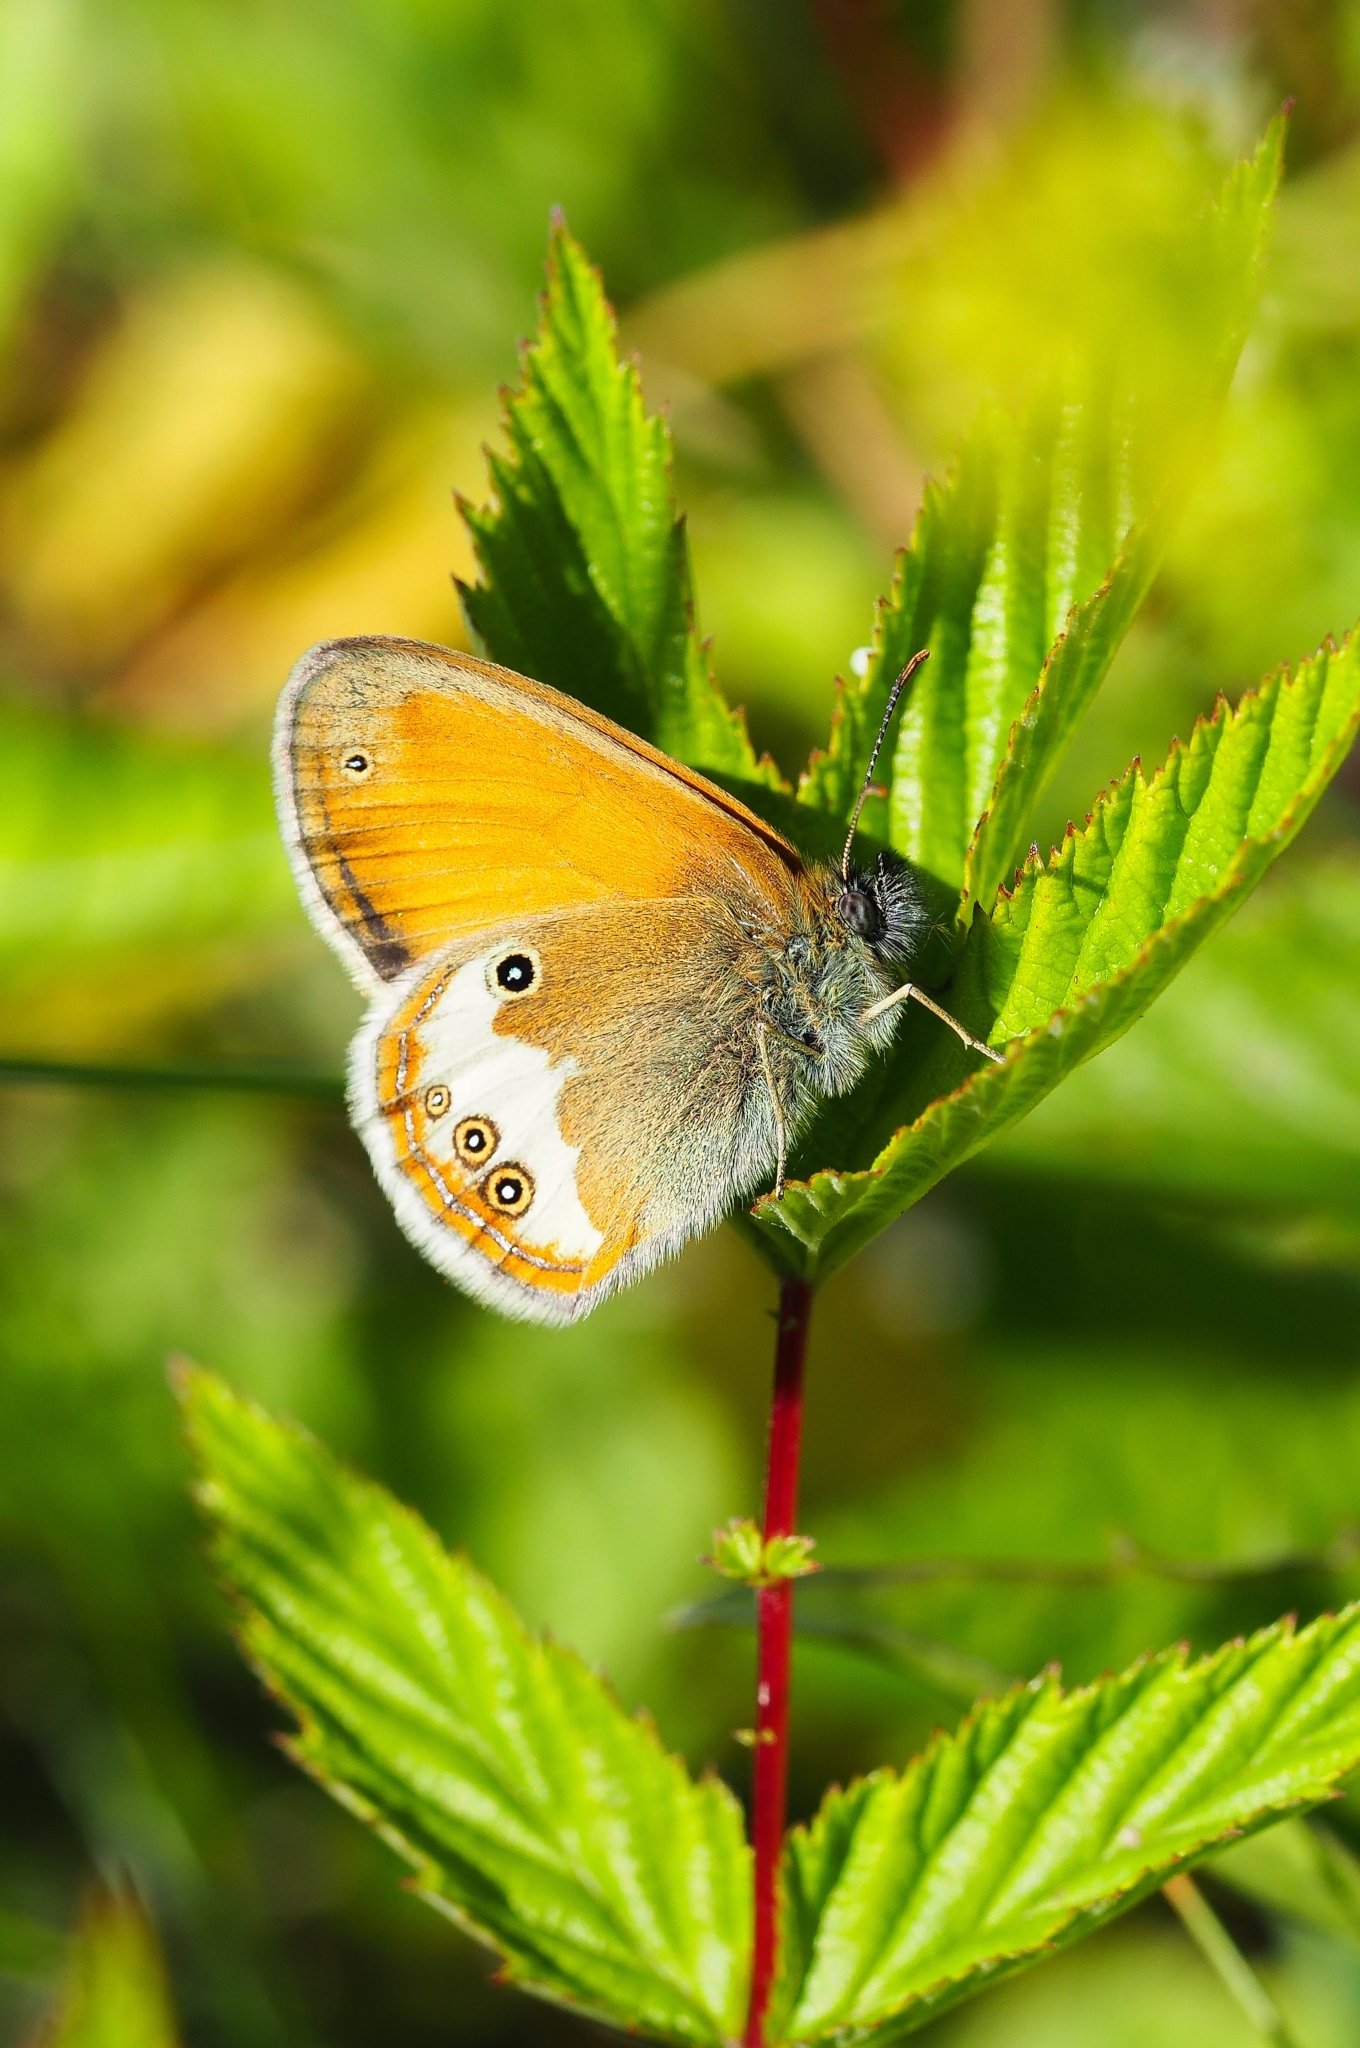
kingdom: Animalia
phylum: Arthropoda
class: Insecta
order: Lepidoptera
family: Nymphalidae
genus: Coenonympha
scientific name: Coenonympha arcania
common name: Pearly heath
